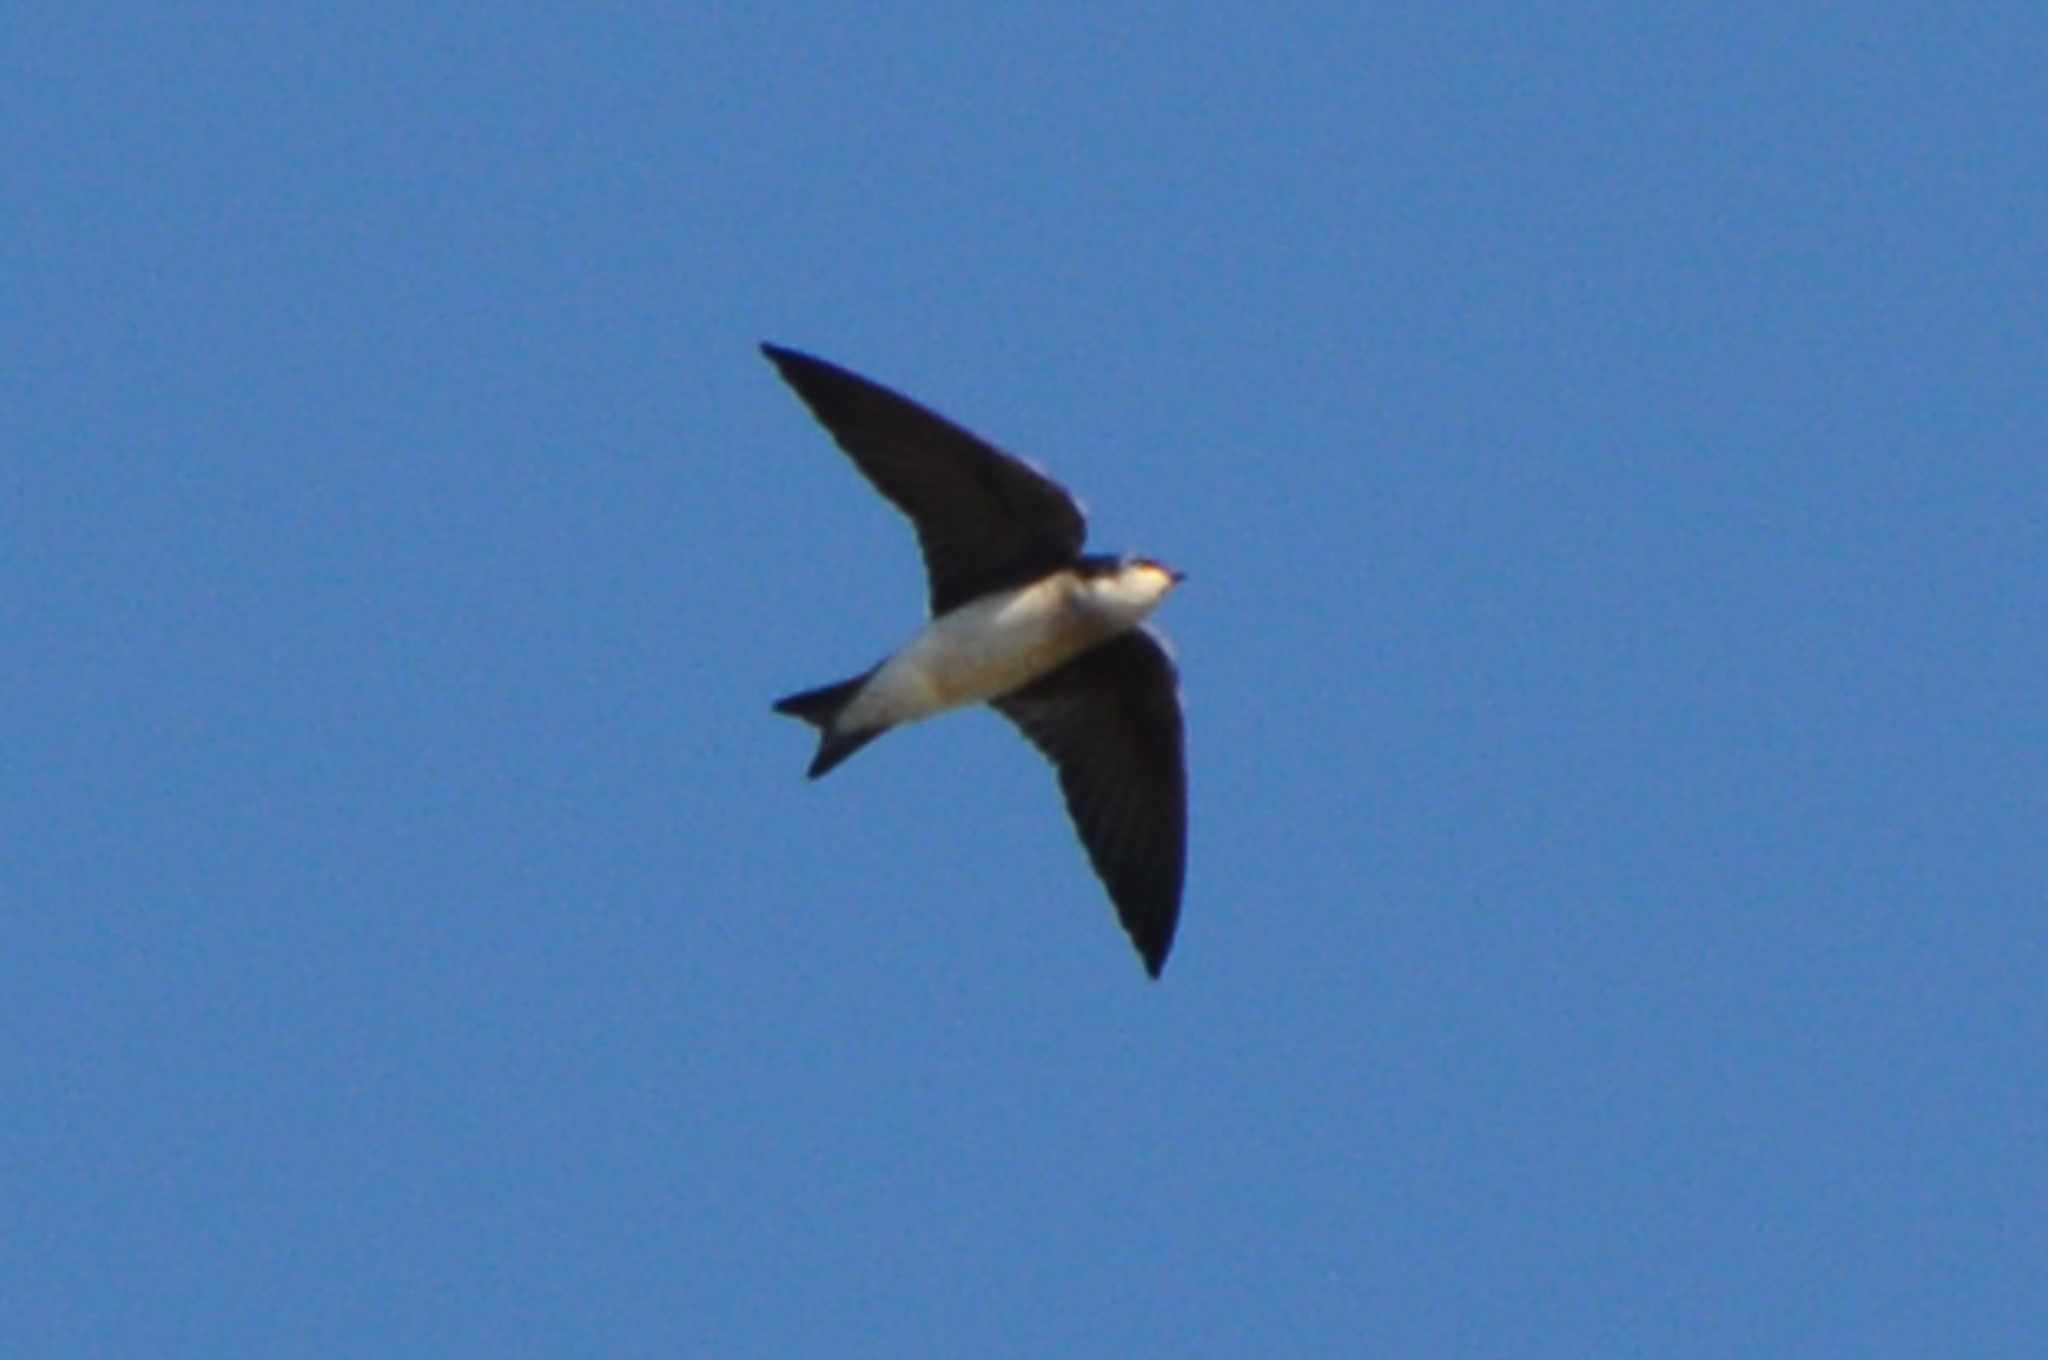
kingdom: Animalia
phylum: Chordata
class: Aves
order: Passeriformes
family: Hirundinidae
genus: Tachycineta
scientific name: Tachycineta bicolor
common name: Tree swallow
